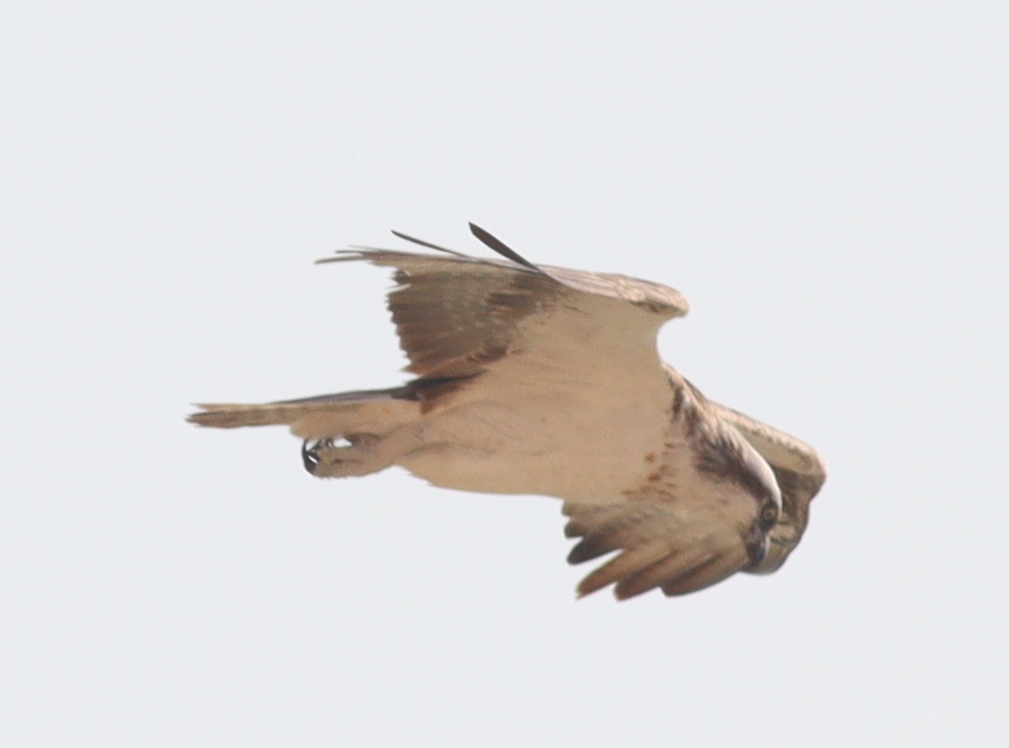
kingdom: Animalia
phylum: Chordata
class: Aves
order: Accipitriformes
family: Pandionidae
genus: Pandion
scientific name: Pandion haliaetus
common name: Osprey
